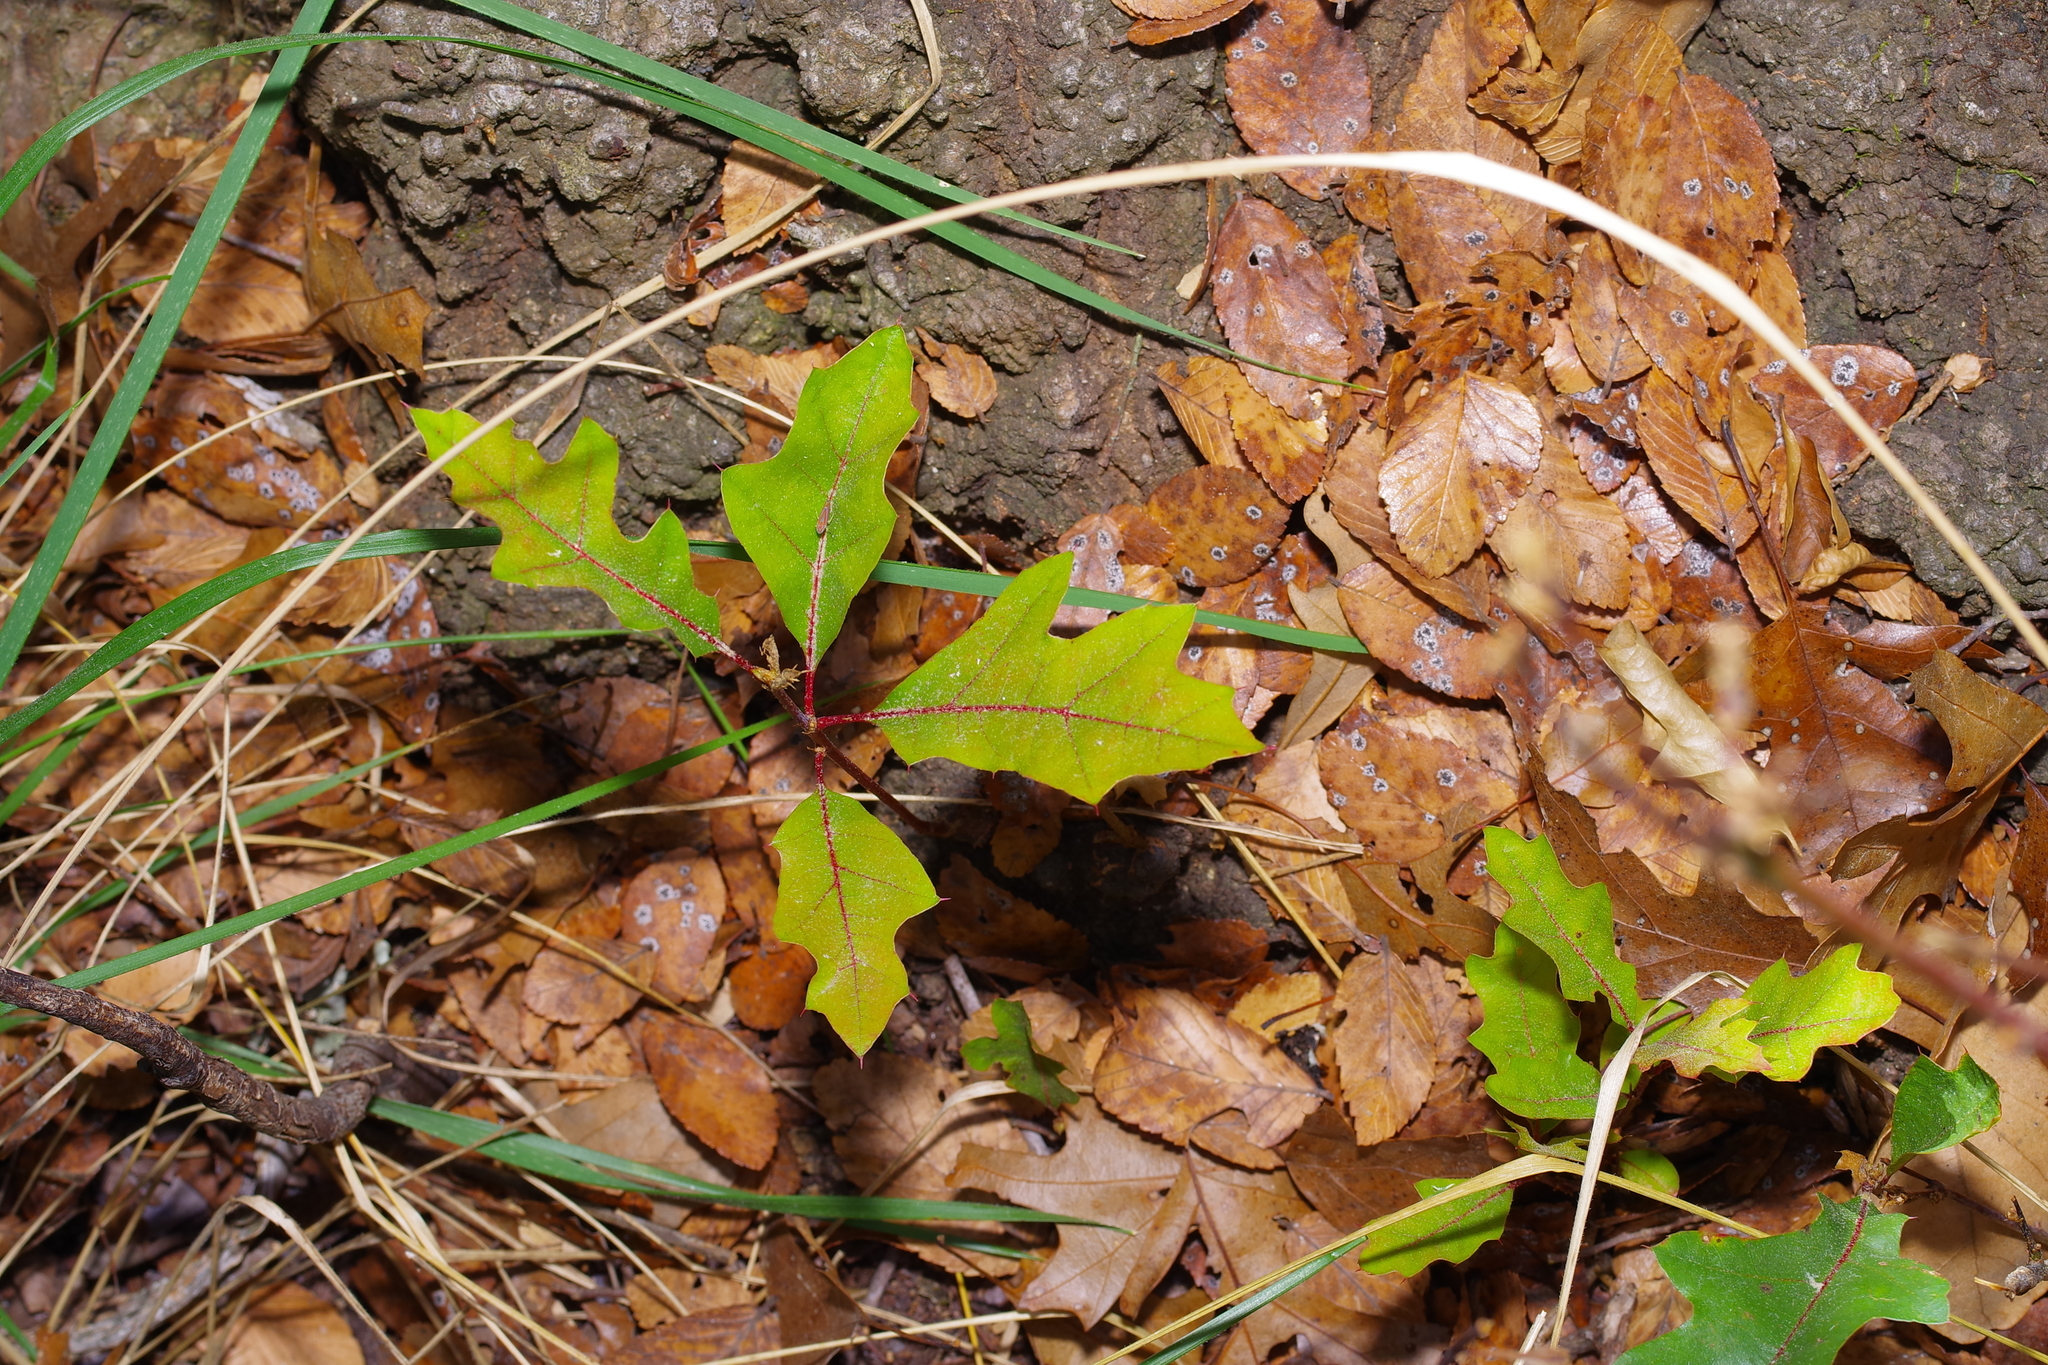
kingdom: Plantae
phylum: Tracheophyta
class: Magnoliopsida
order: Fagales
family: Fagaceae
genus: Quercus
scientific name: Quercus buckleyi
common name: Buckley oak
